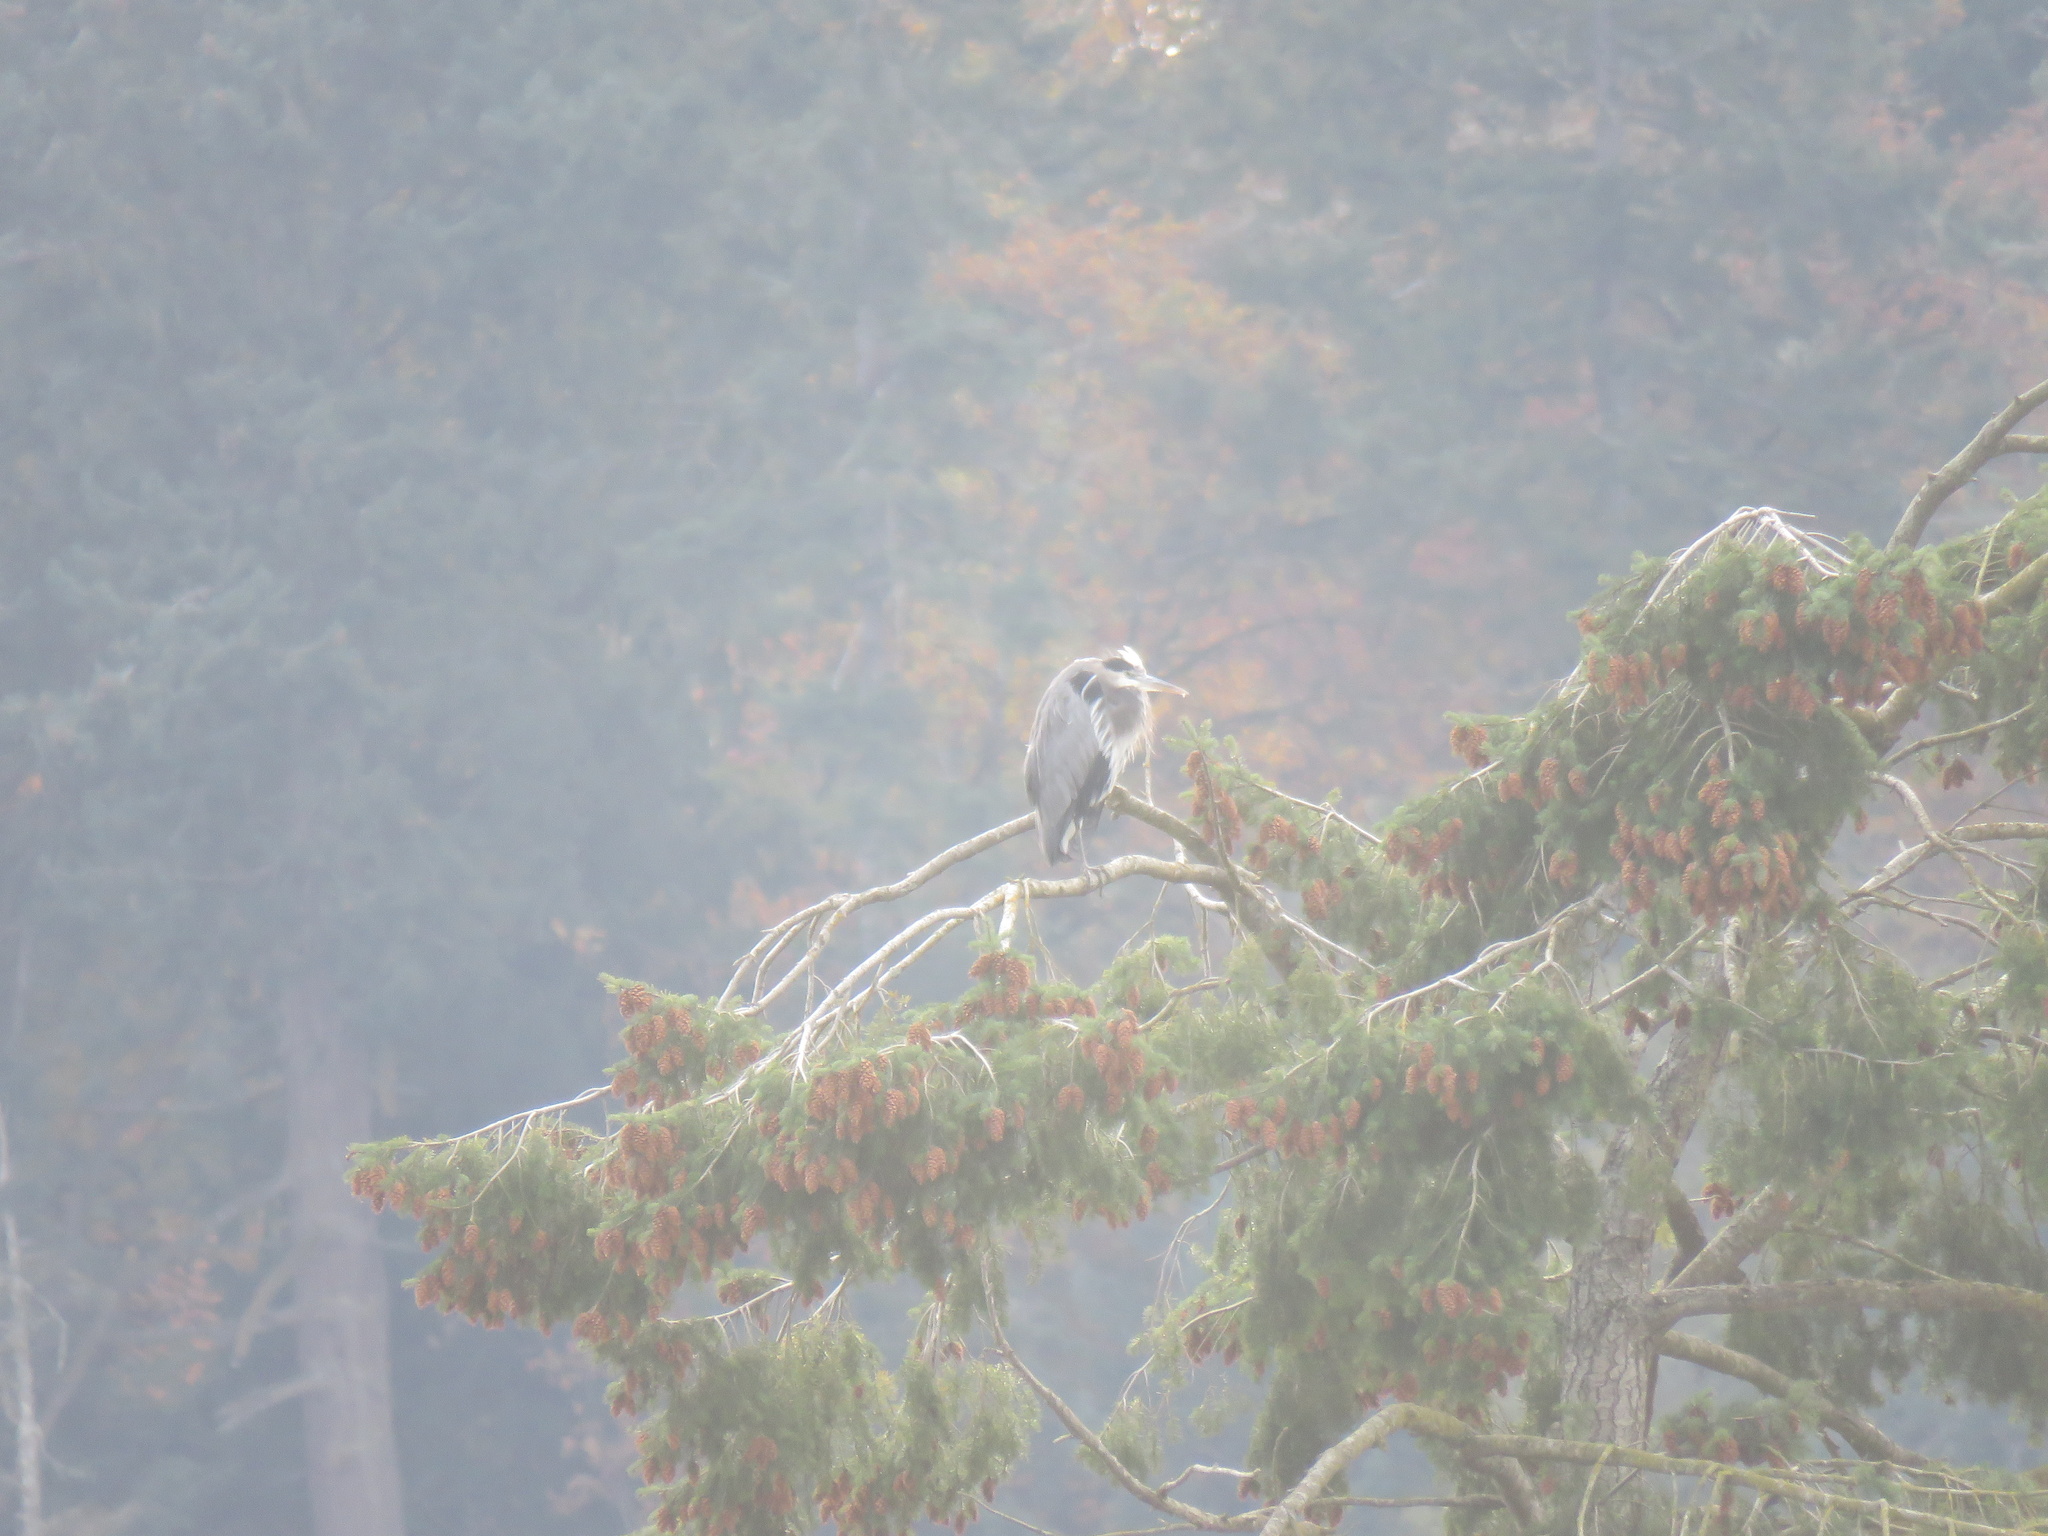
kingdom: Animalia
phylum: Chordata
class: Aves
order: Pelecaniformes
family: Ardeidae
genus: Ardea
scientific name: Ardea herodias
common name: Great blue heron
